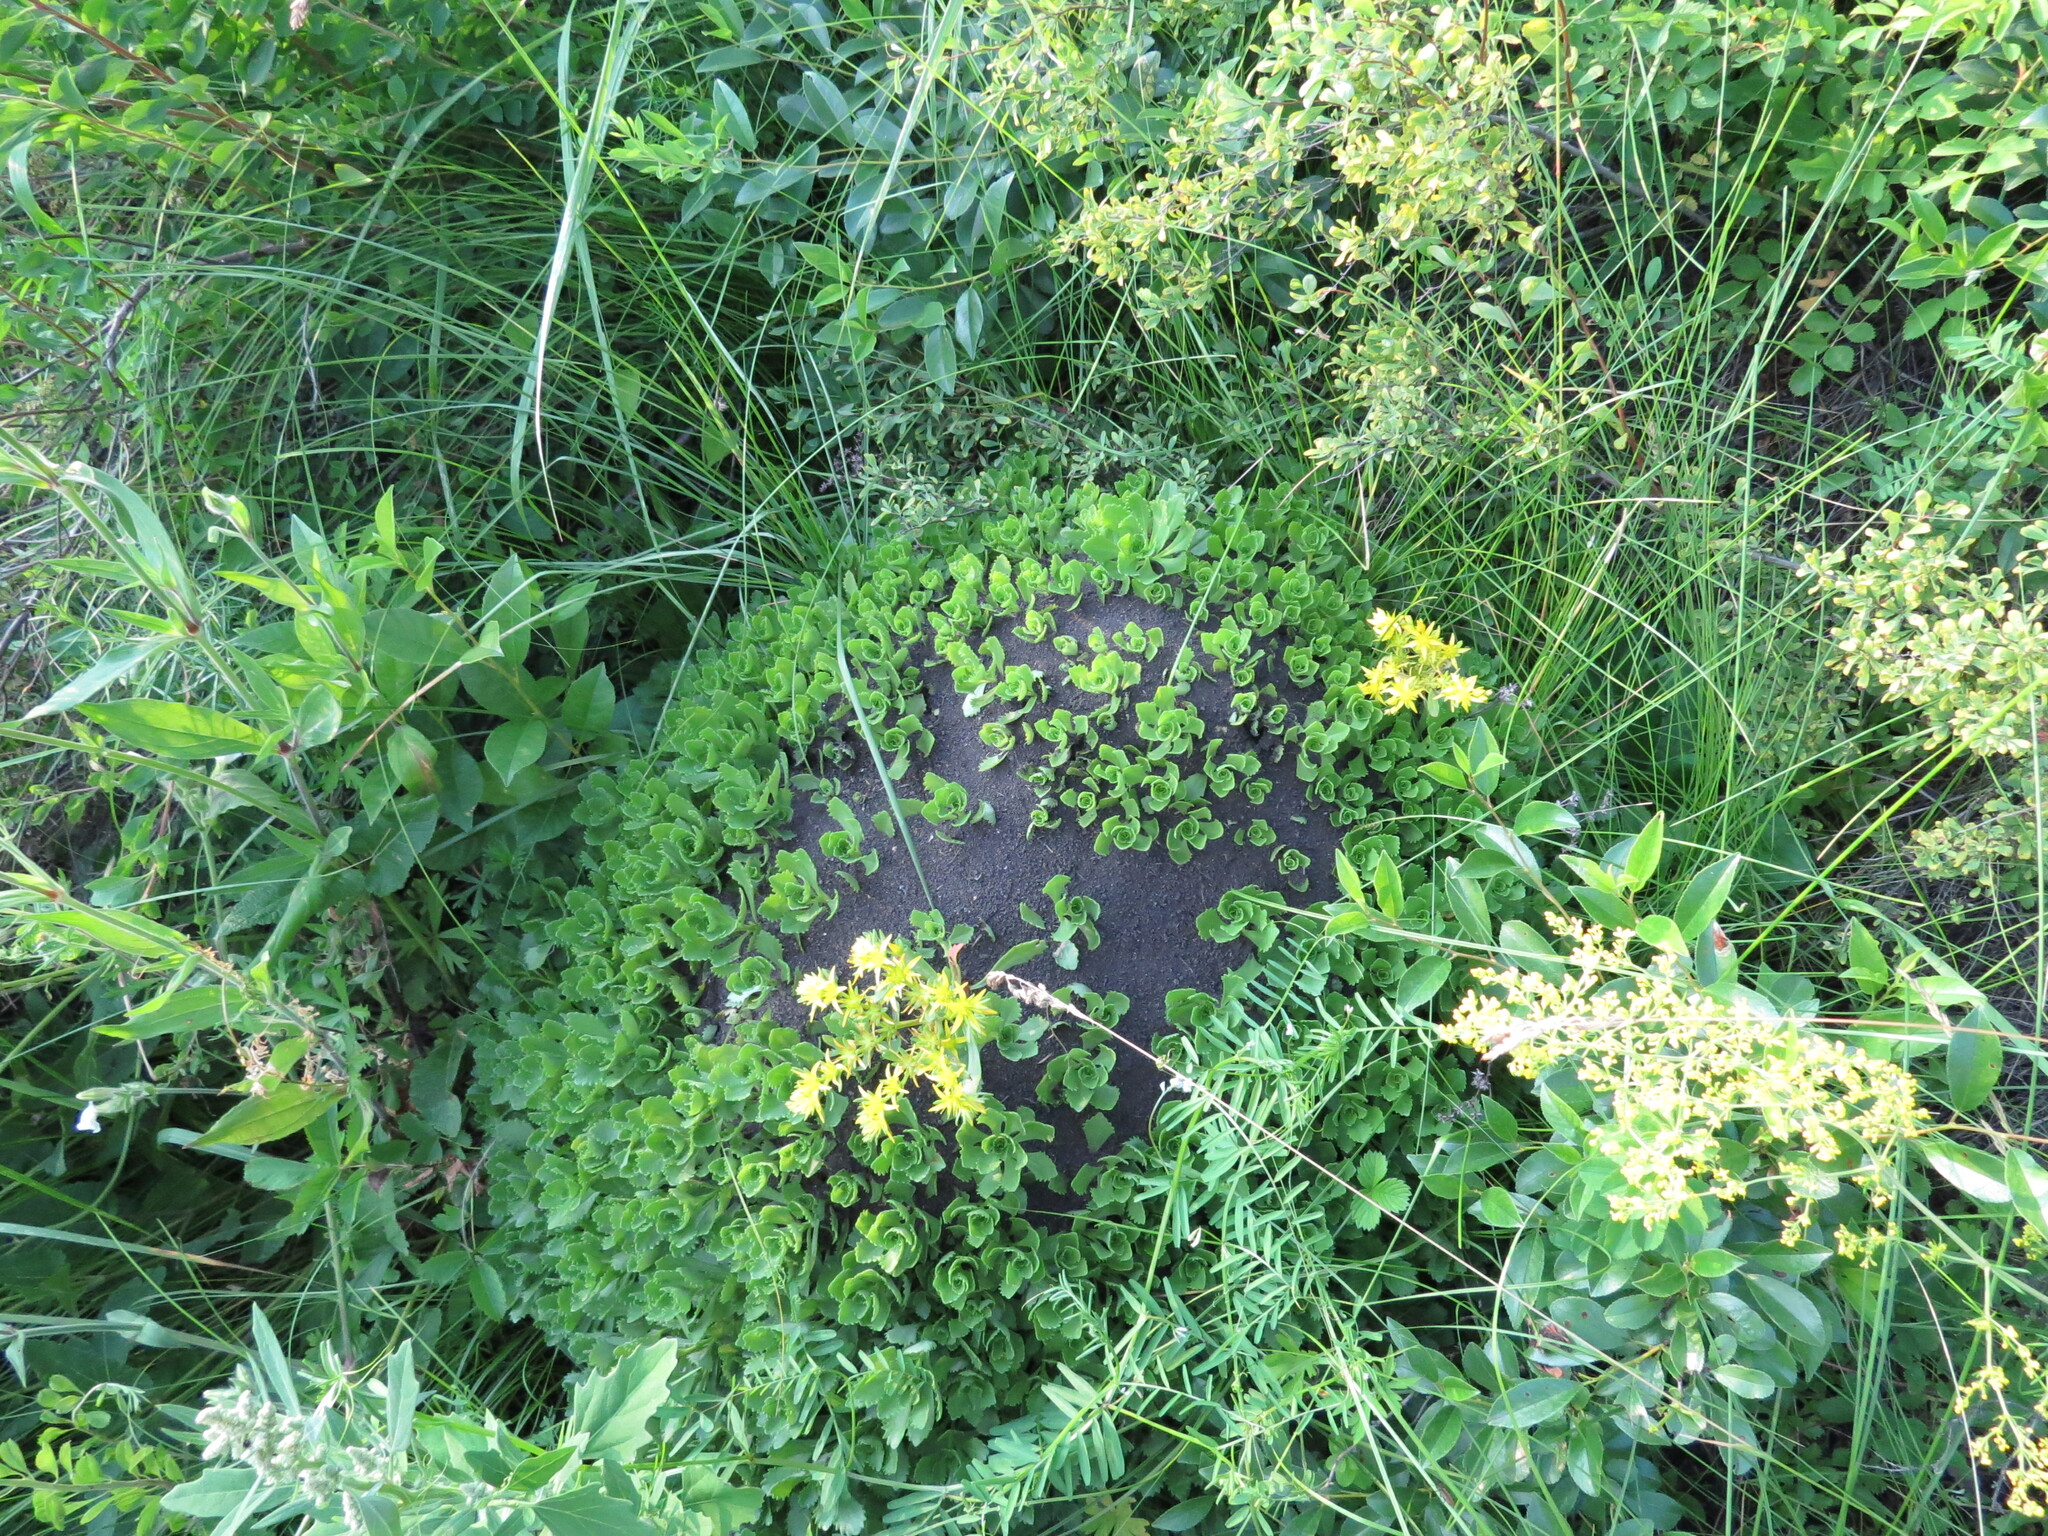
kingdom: Plantae
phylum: Tracheophyta
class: Magnoliopsida
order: Saxifragales
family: Crassulaceae
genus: Phedimus
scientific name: Phedimus hybridus
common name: Hybrid stonecrop
